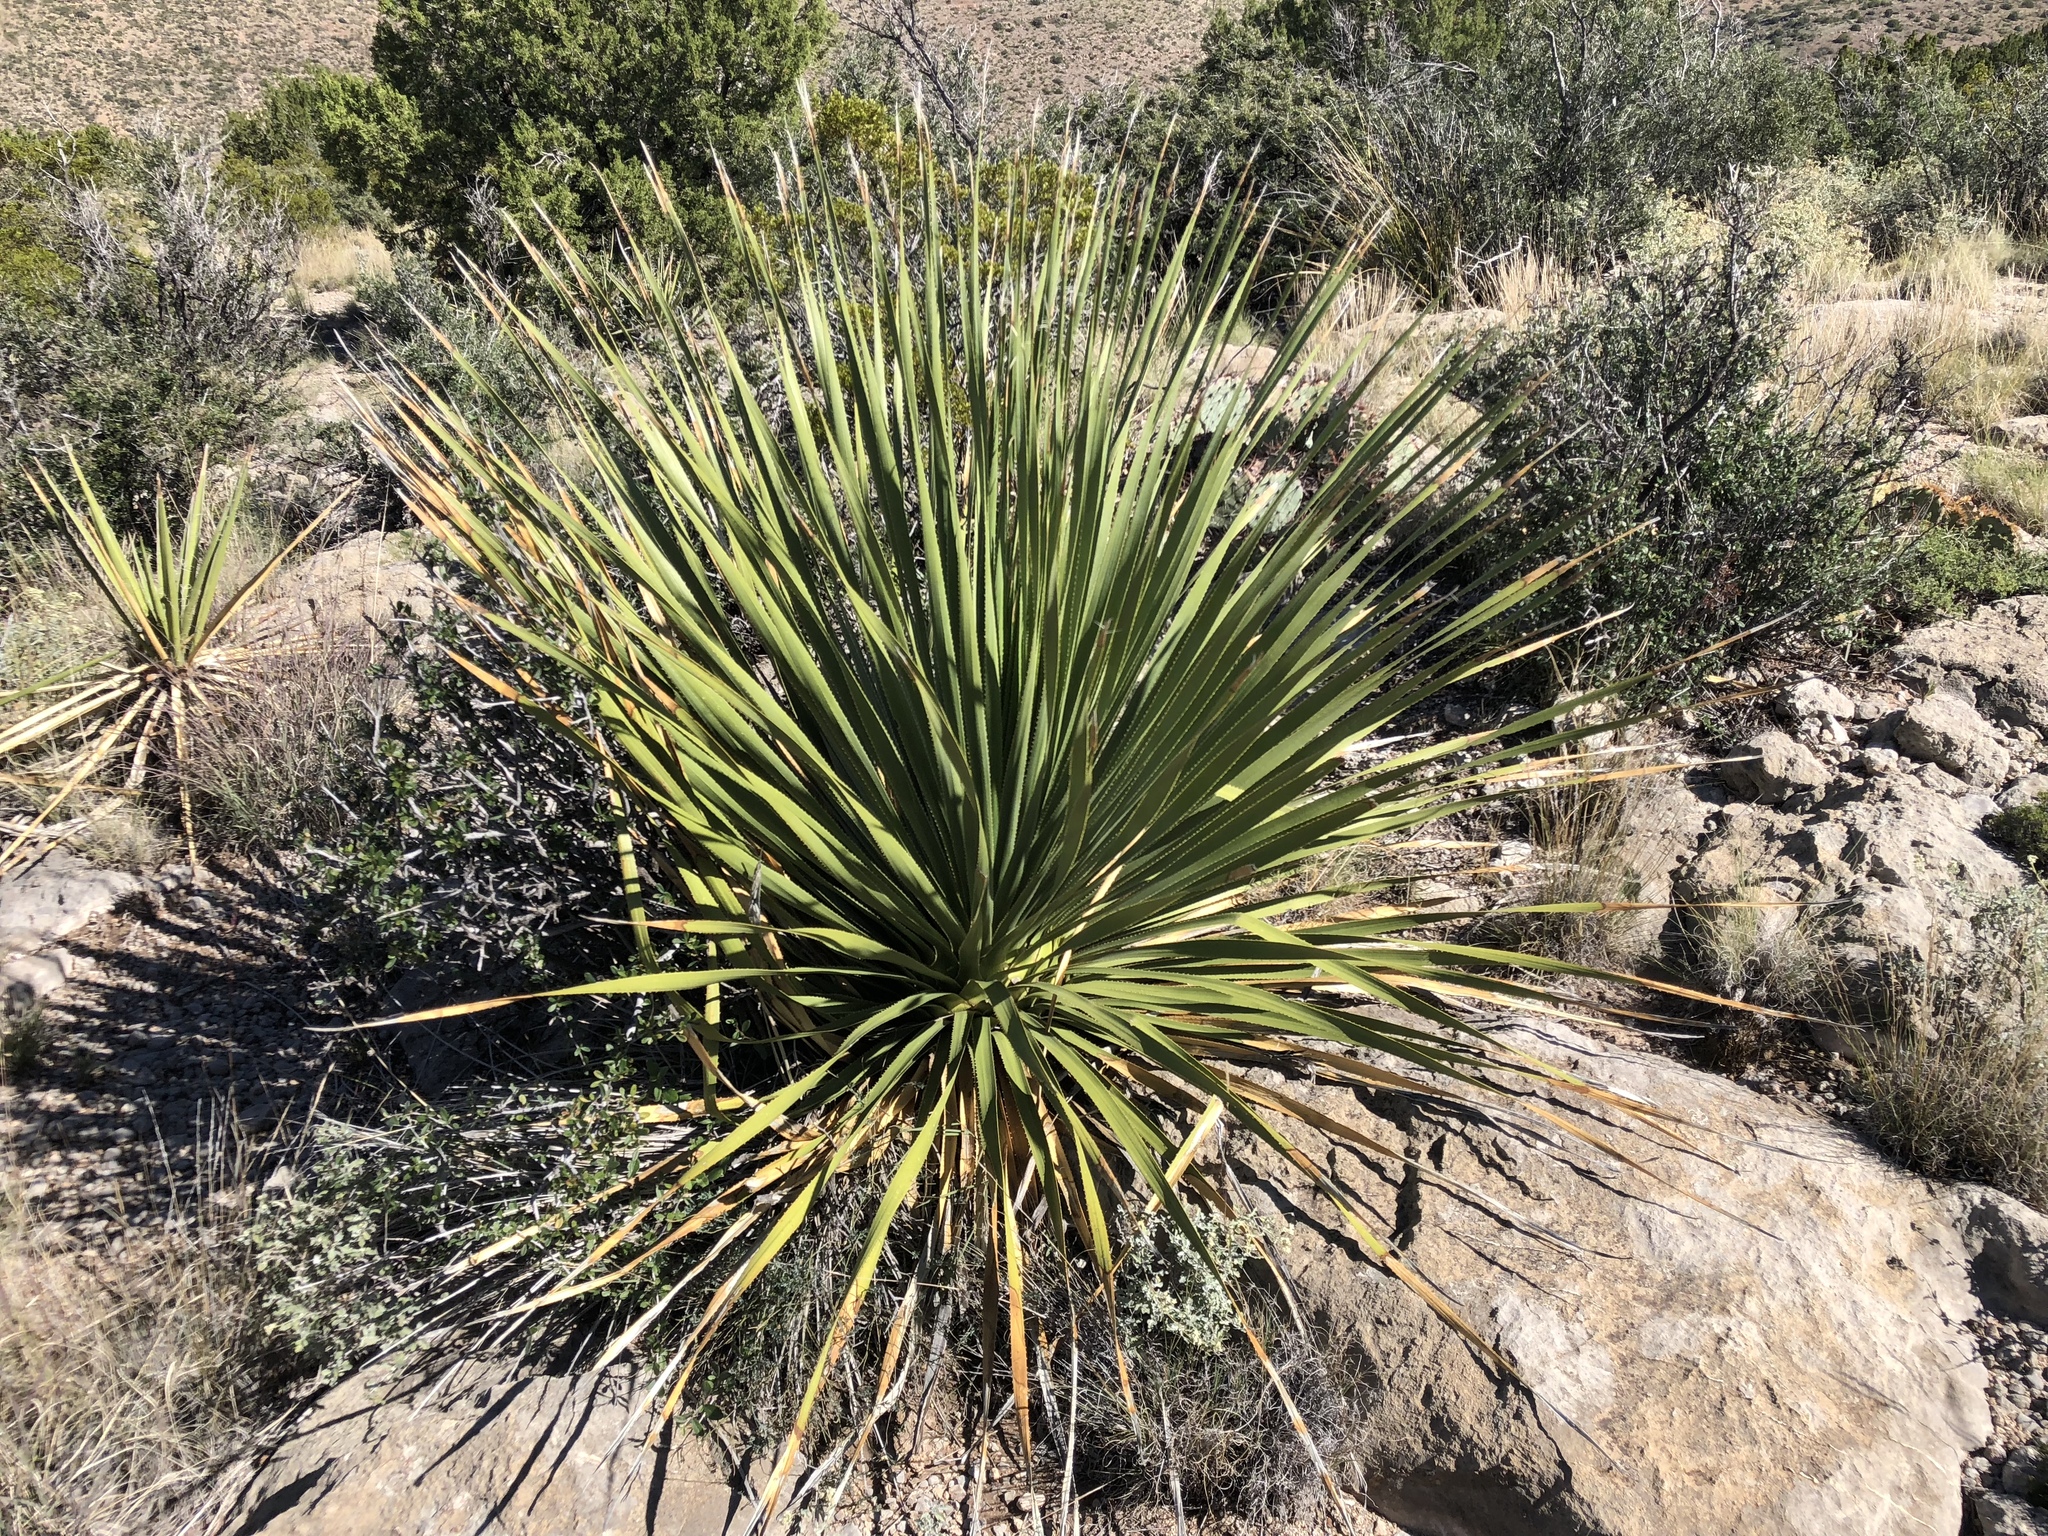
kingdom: Plantae
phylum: Tracheophyta
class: Liliopsida
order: Asparagales
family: Asparagaceae
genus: Dasylirion
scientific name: Dasylirion wheeleri
